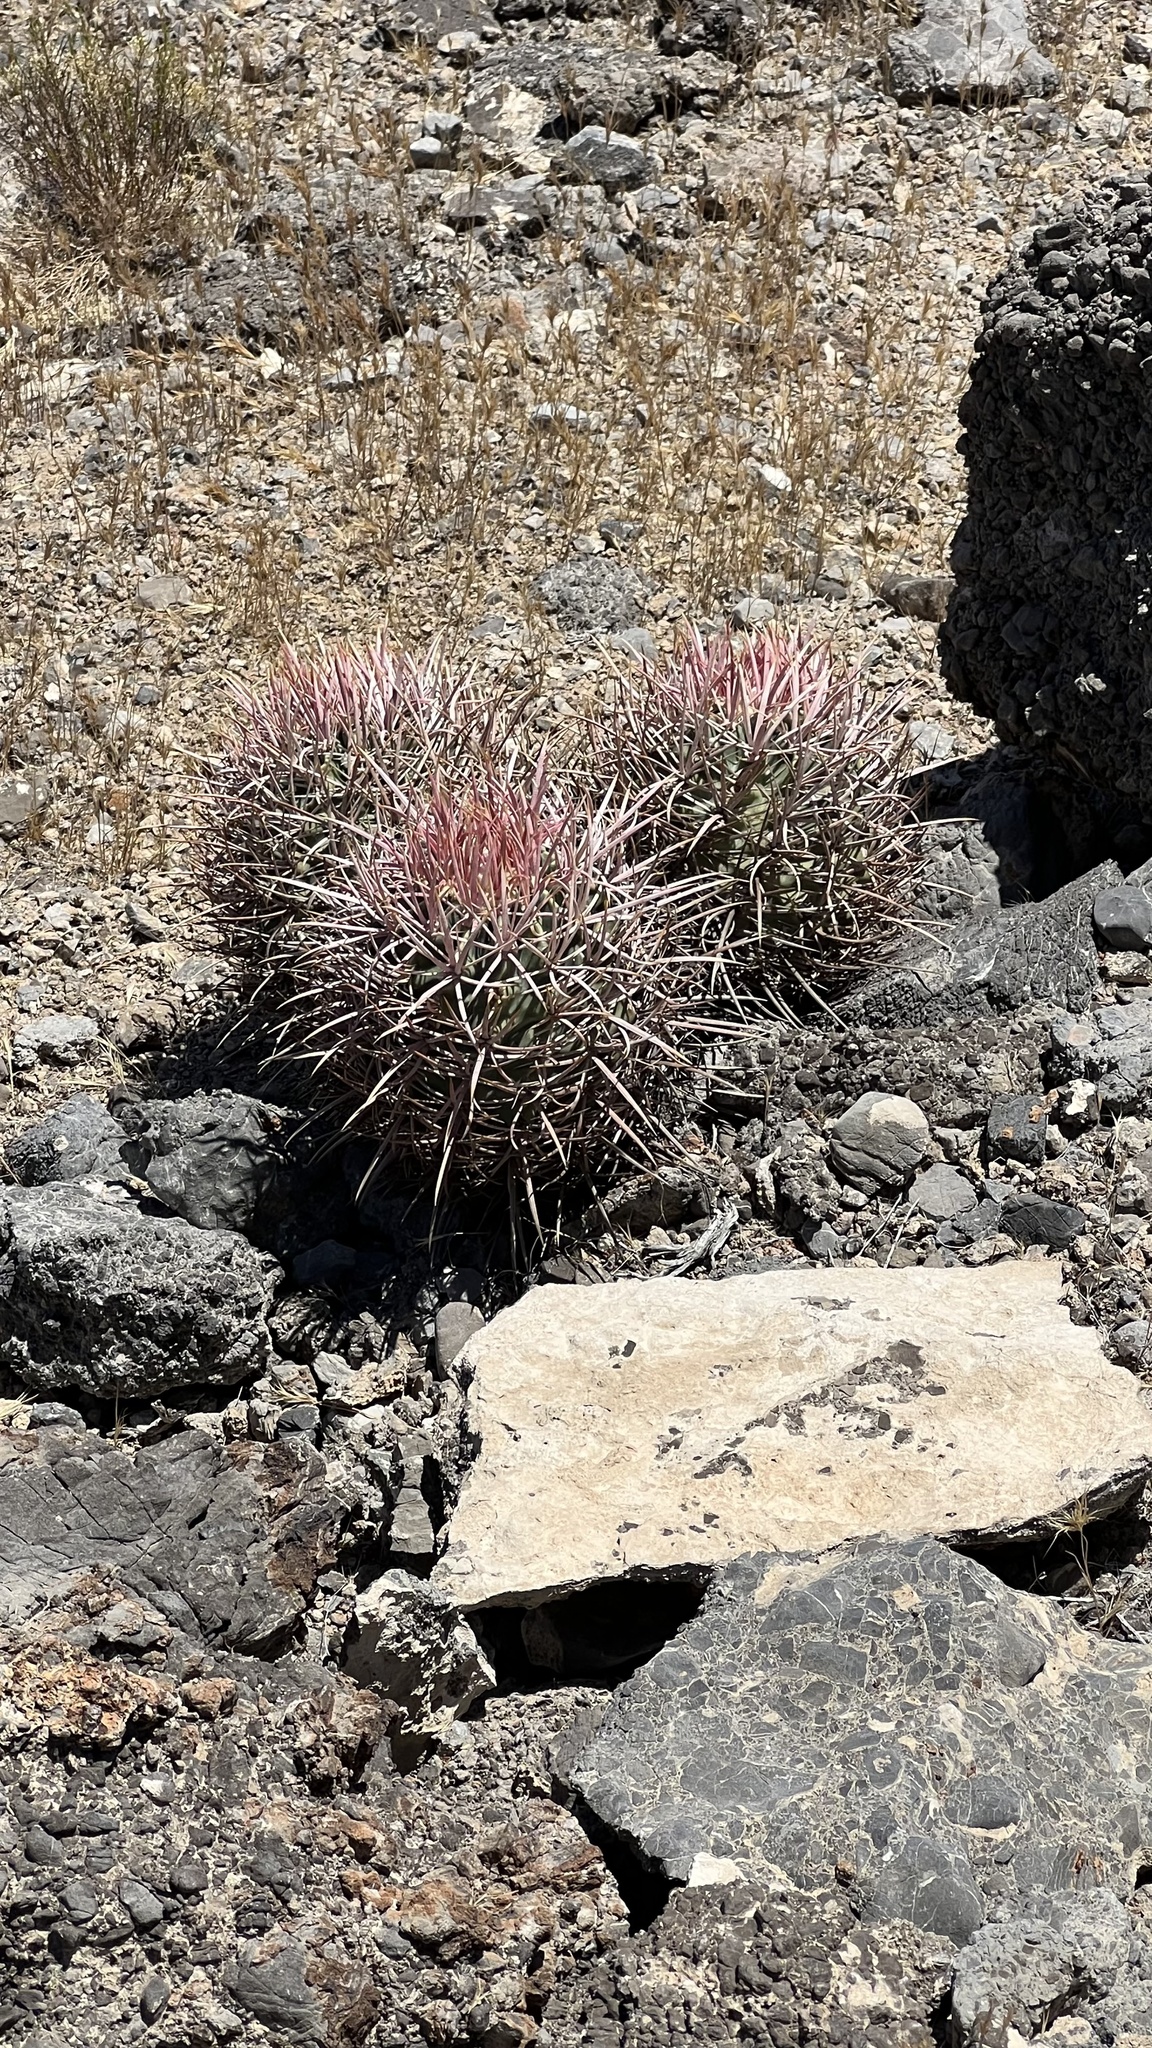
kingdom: Plantae
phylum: Tracheophyta
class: Magnoliopsida
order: Caryophyllales
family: Cactaceae
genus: Echinocactus
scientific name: Echinocactus polycephalus
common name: Cottontop cactus
